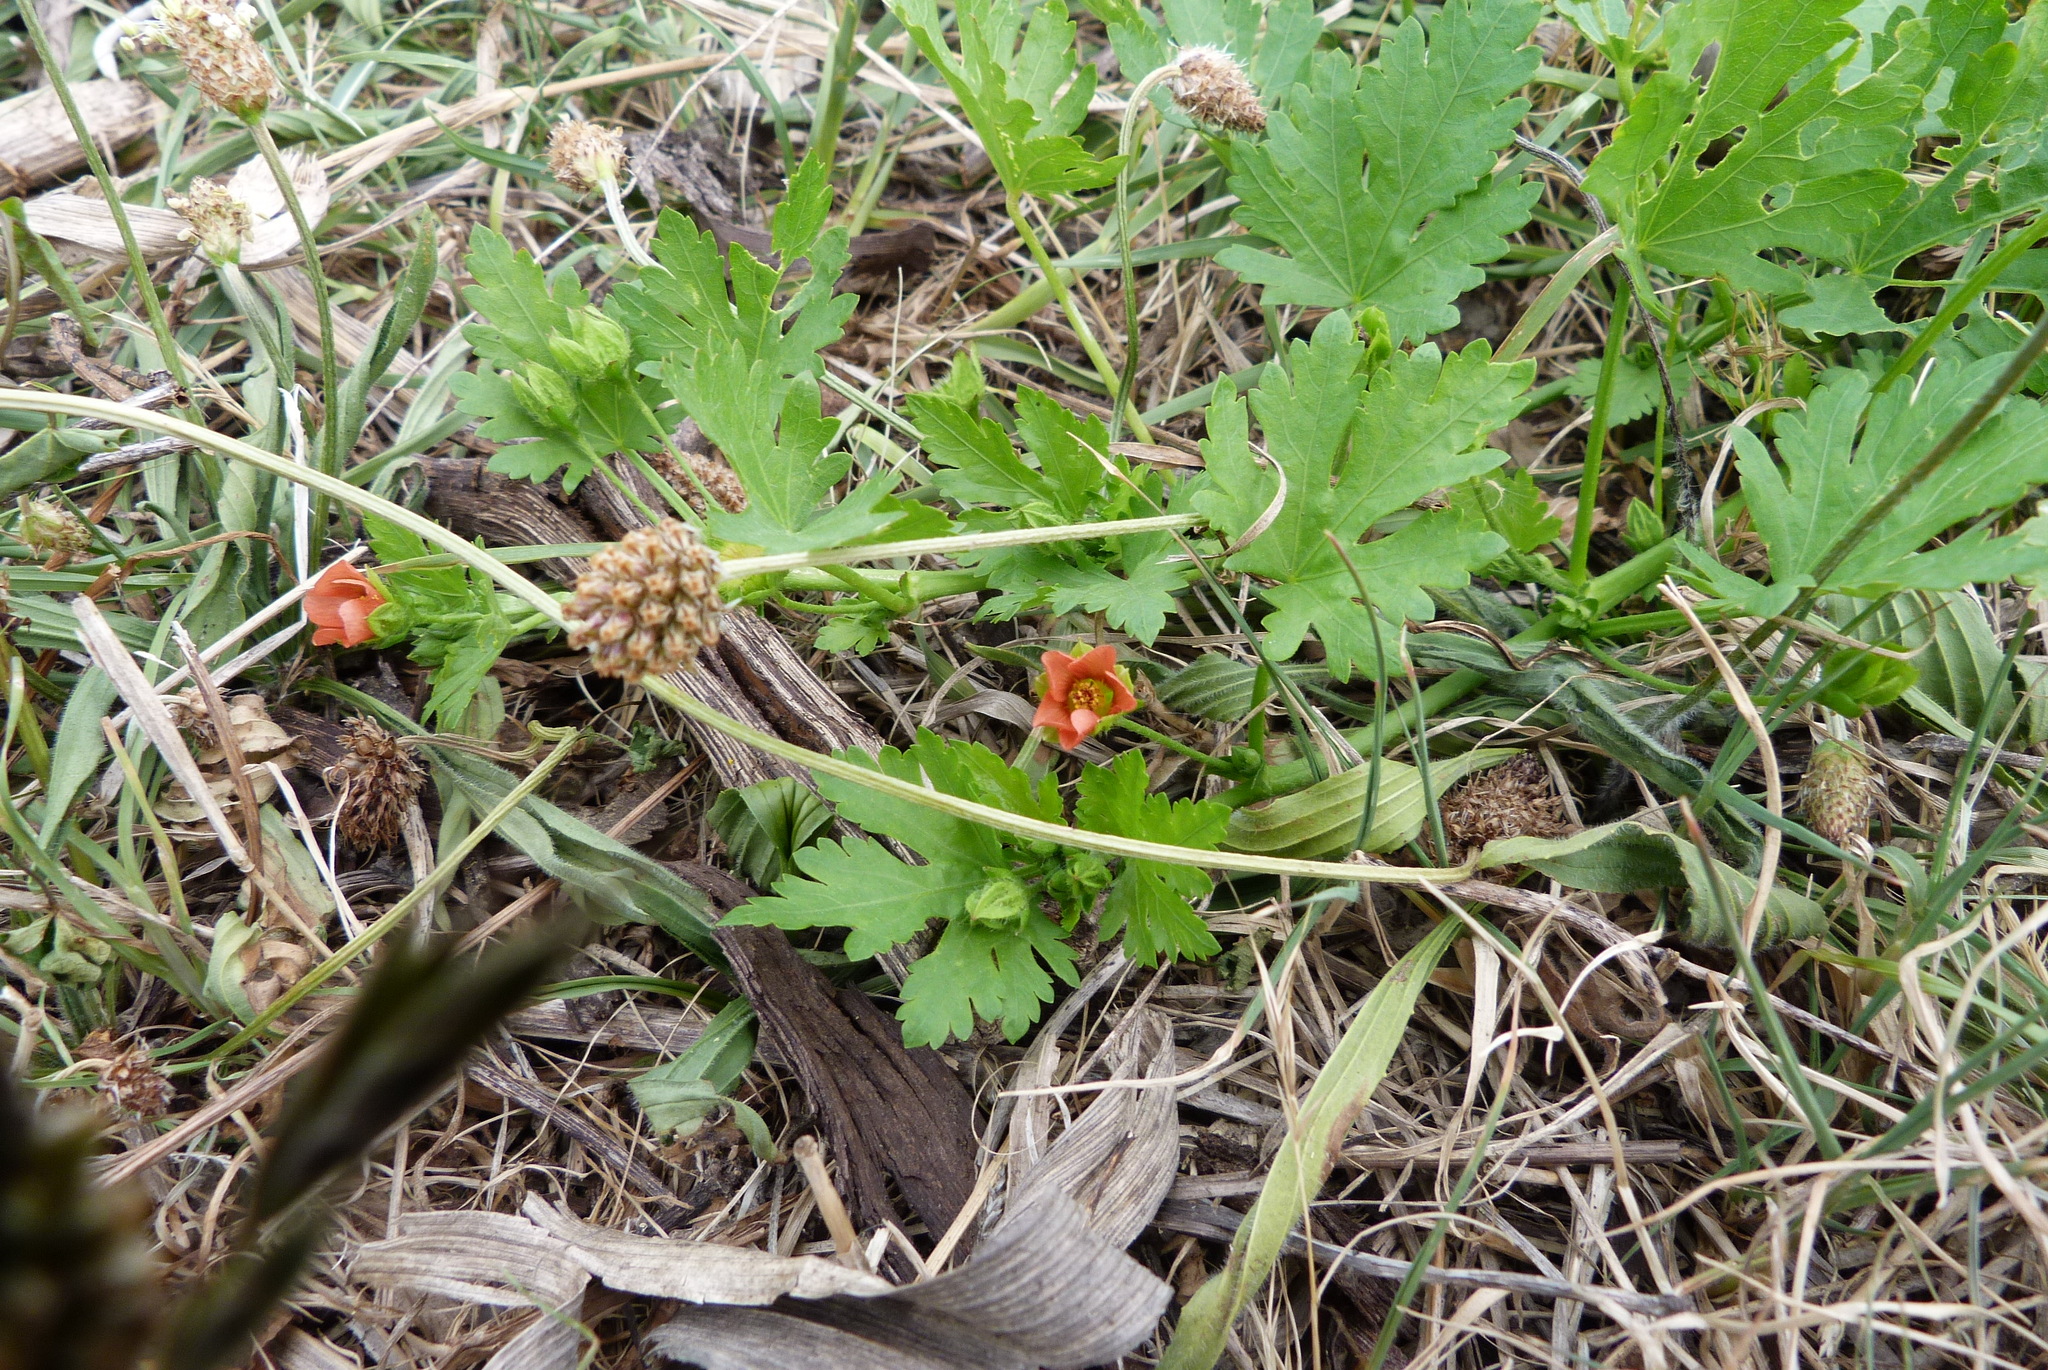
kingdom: Plantae
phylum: Tracheophyta
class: Magnoliopsida
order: Malvales
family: Malvaceae
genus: Modiola
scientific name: Modiola caroliniana
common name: Carolina bristlemallow
